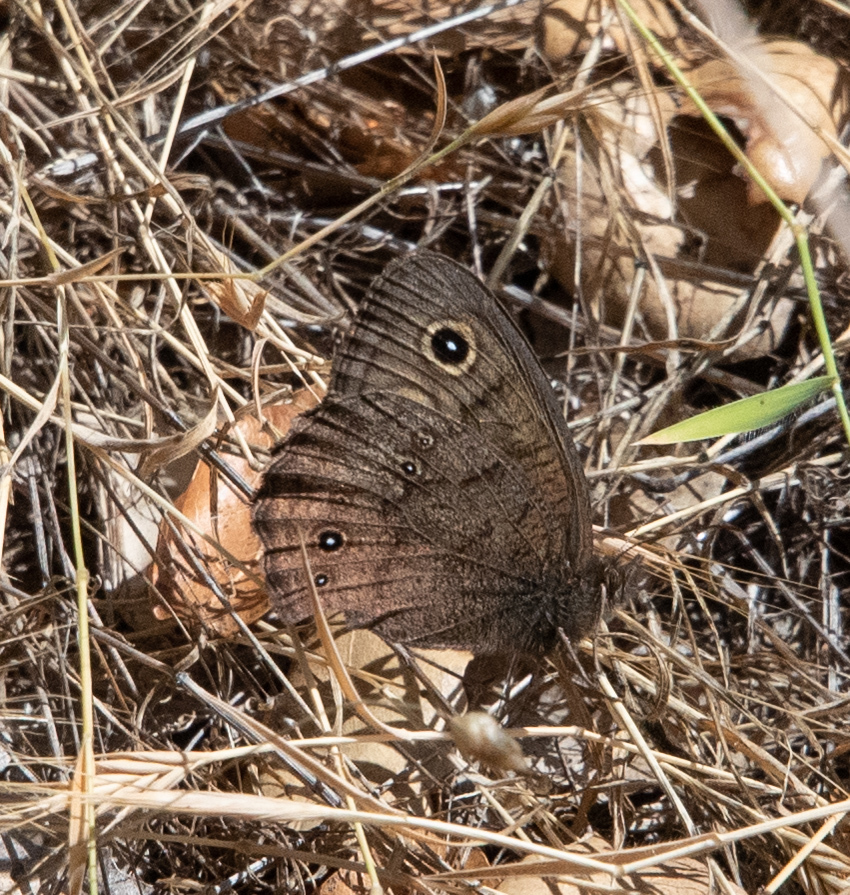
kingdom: Animalia
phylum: Arthropoda
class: Insecta
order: Lepidoptera
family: Nymphalidae
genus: Cercyonis
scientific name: Cercyonis sthenele
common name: Great basin wood-nymph
